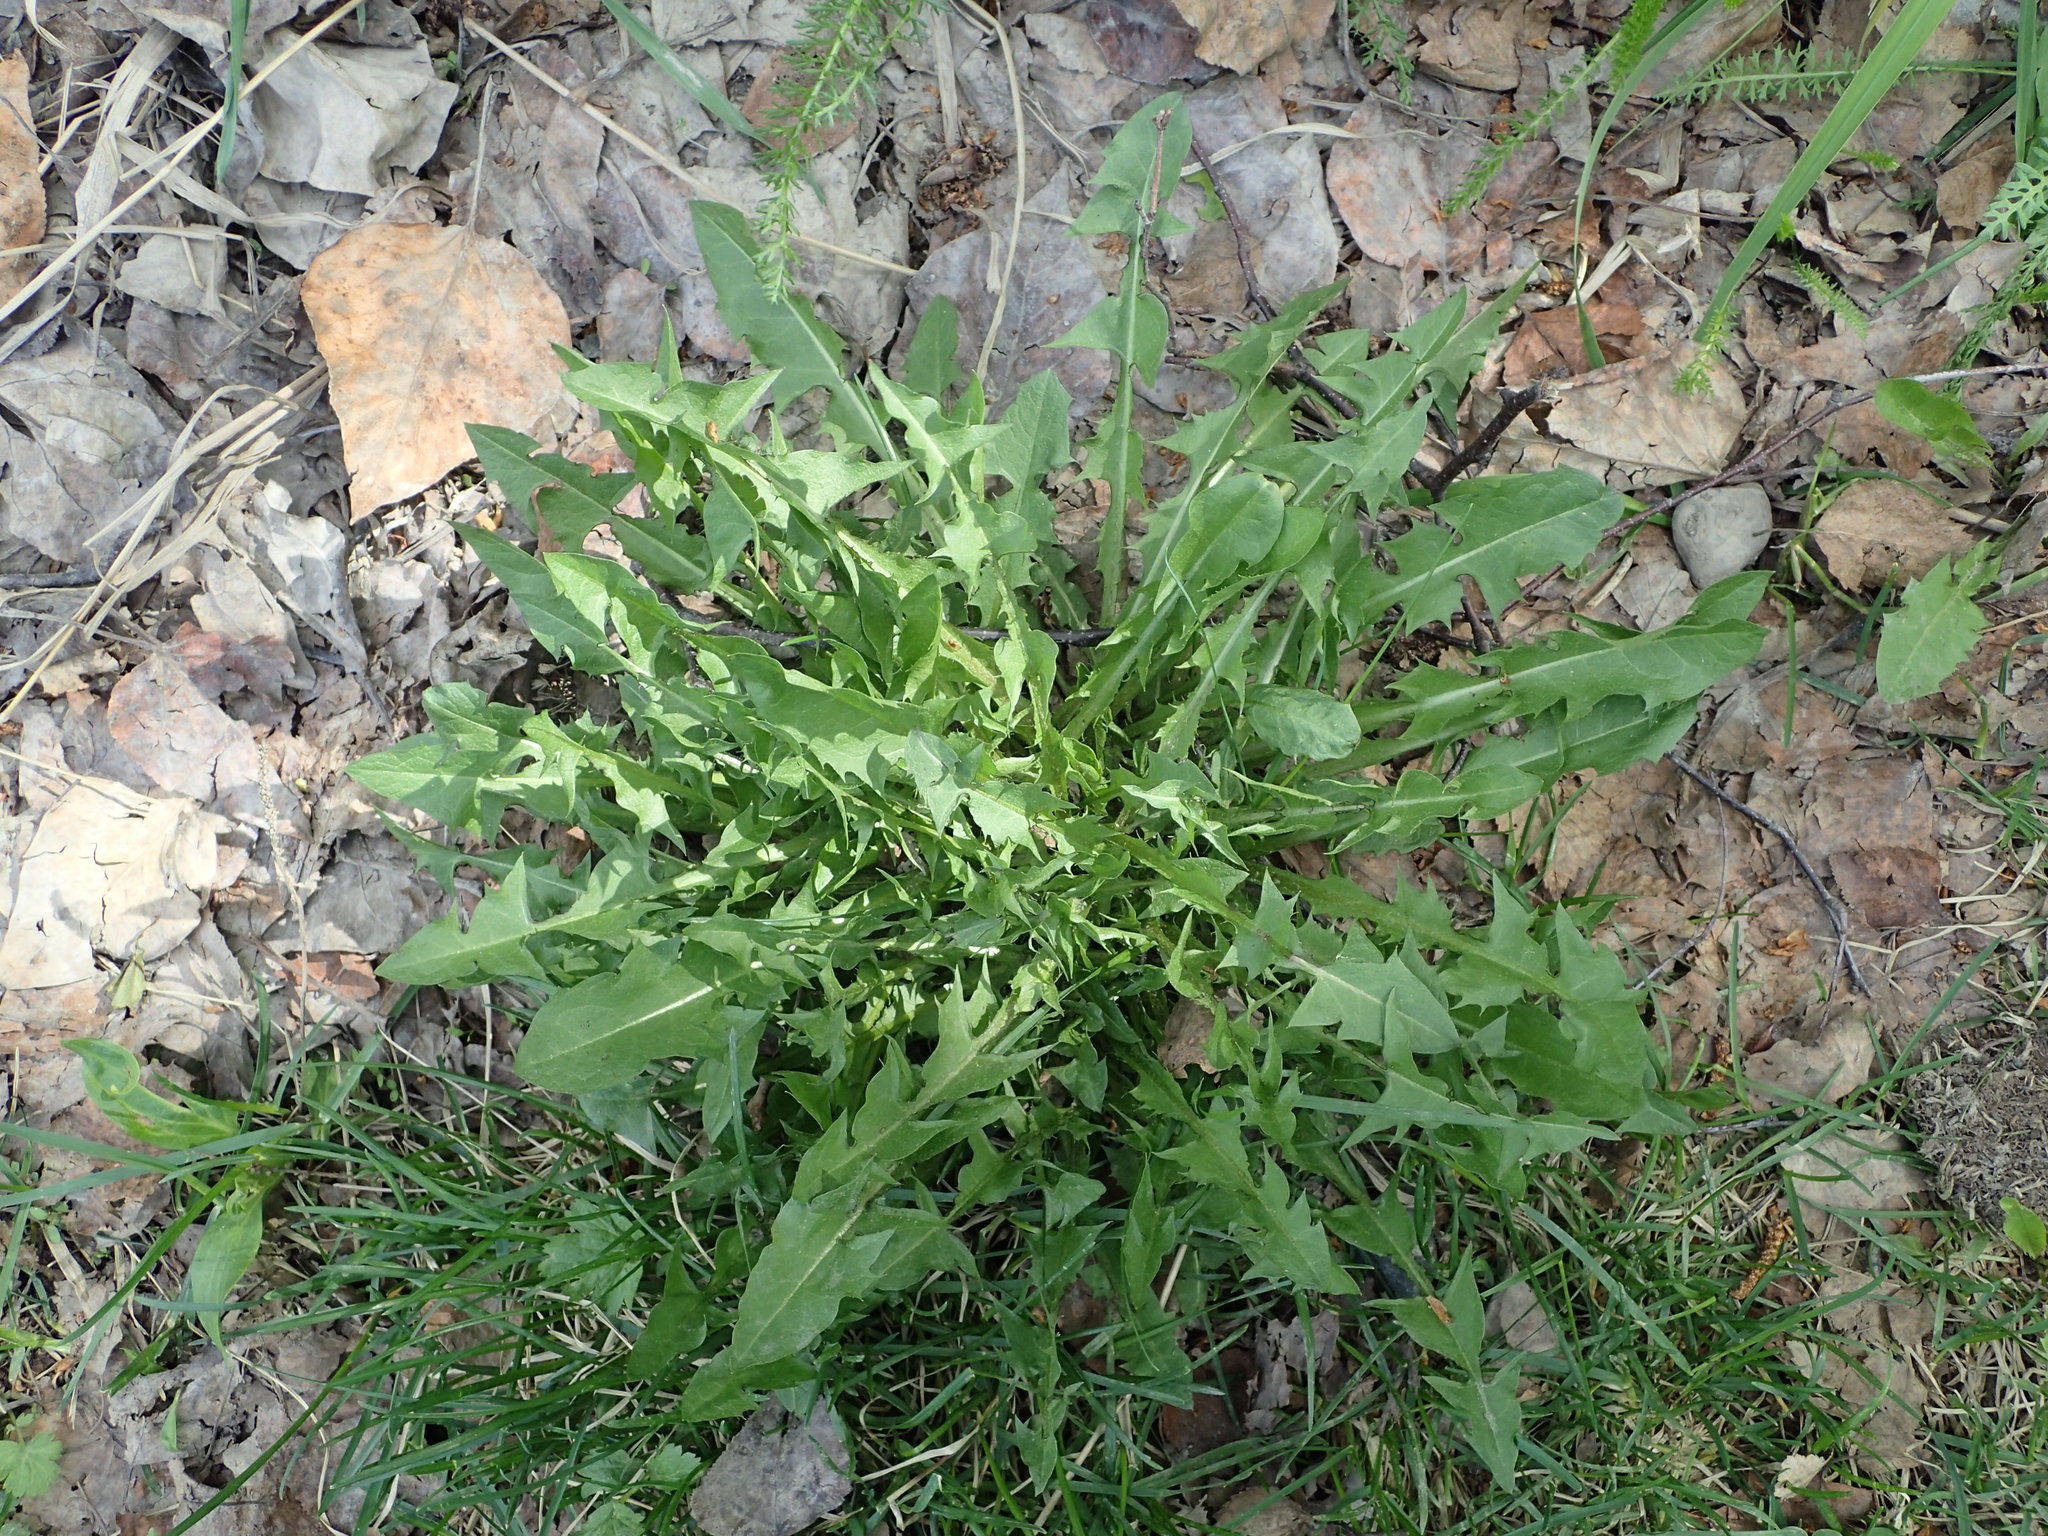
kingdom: Plantae
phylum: Tracheophyta
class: Magnoliopsida
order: Asterales
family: Asteraceae
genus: Taraxacum
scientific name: Taraxacum officinale
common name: Common dandelion
